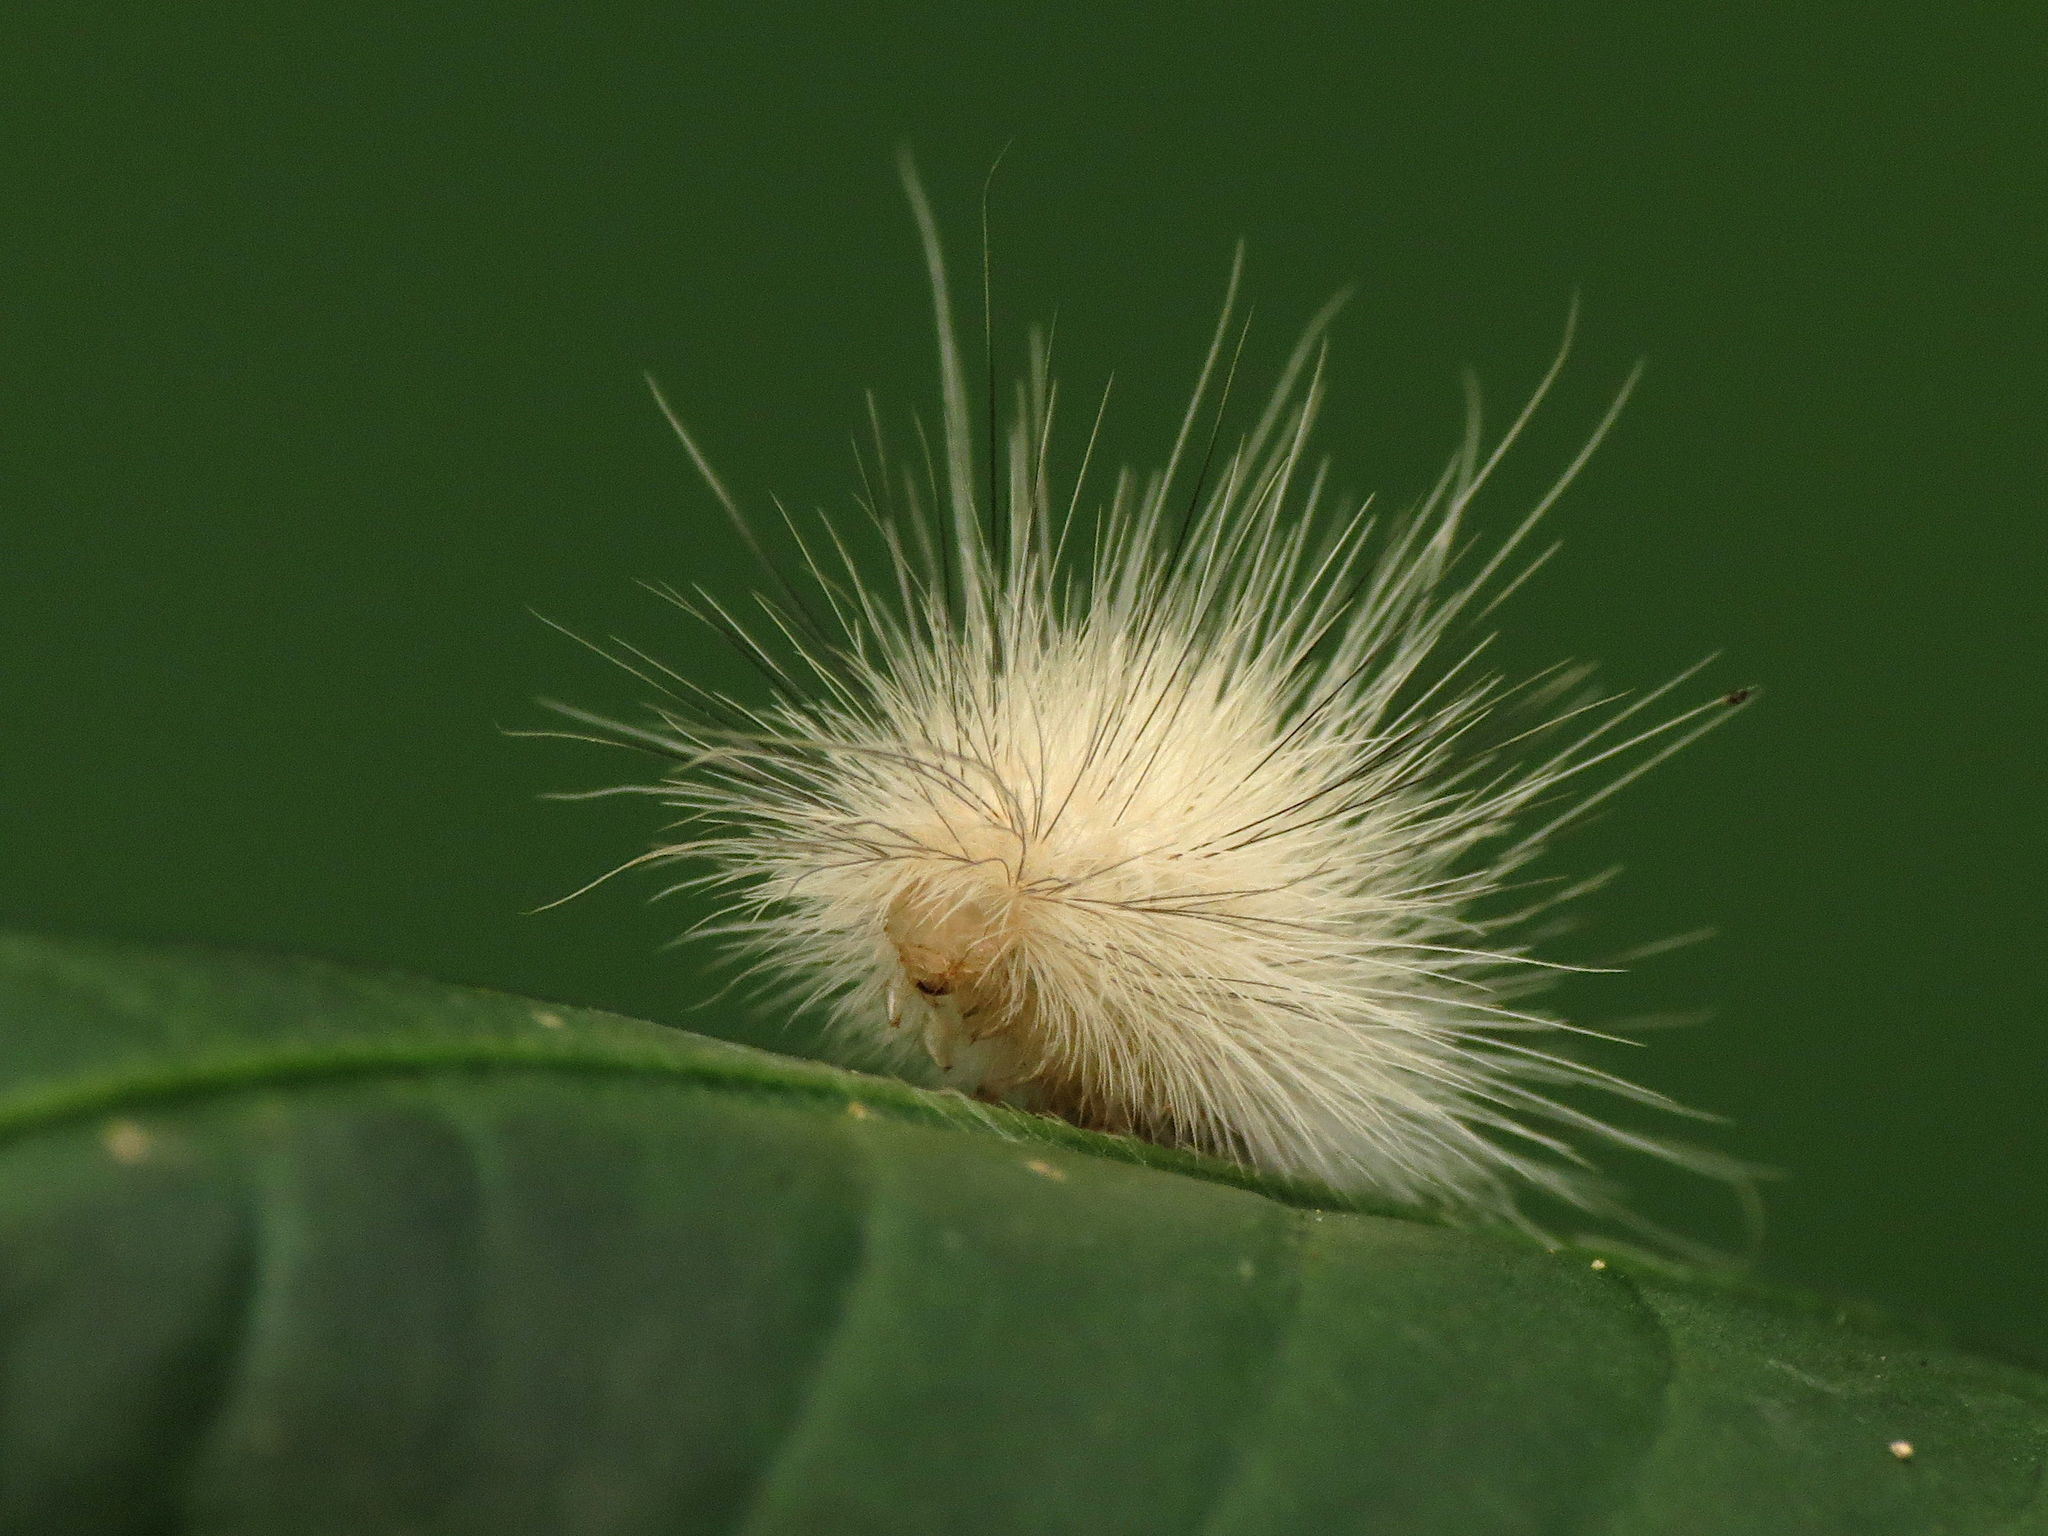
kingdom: Animalia
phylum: Arthropoda
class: Insecta
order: Lepidoptera
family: Erebidae
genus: Spilosoma
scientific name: Spilosoma virginica
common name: Virginia tiger moth
